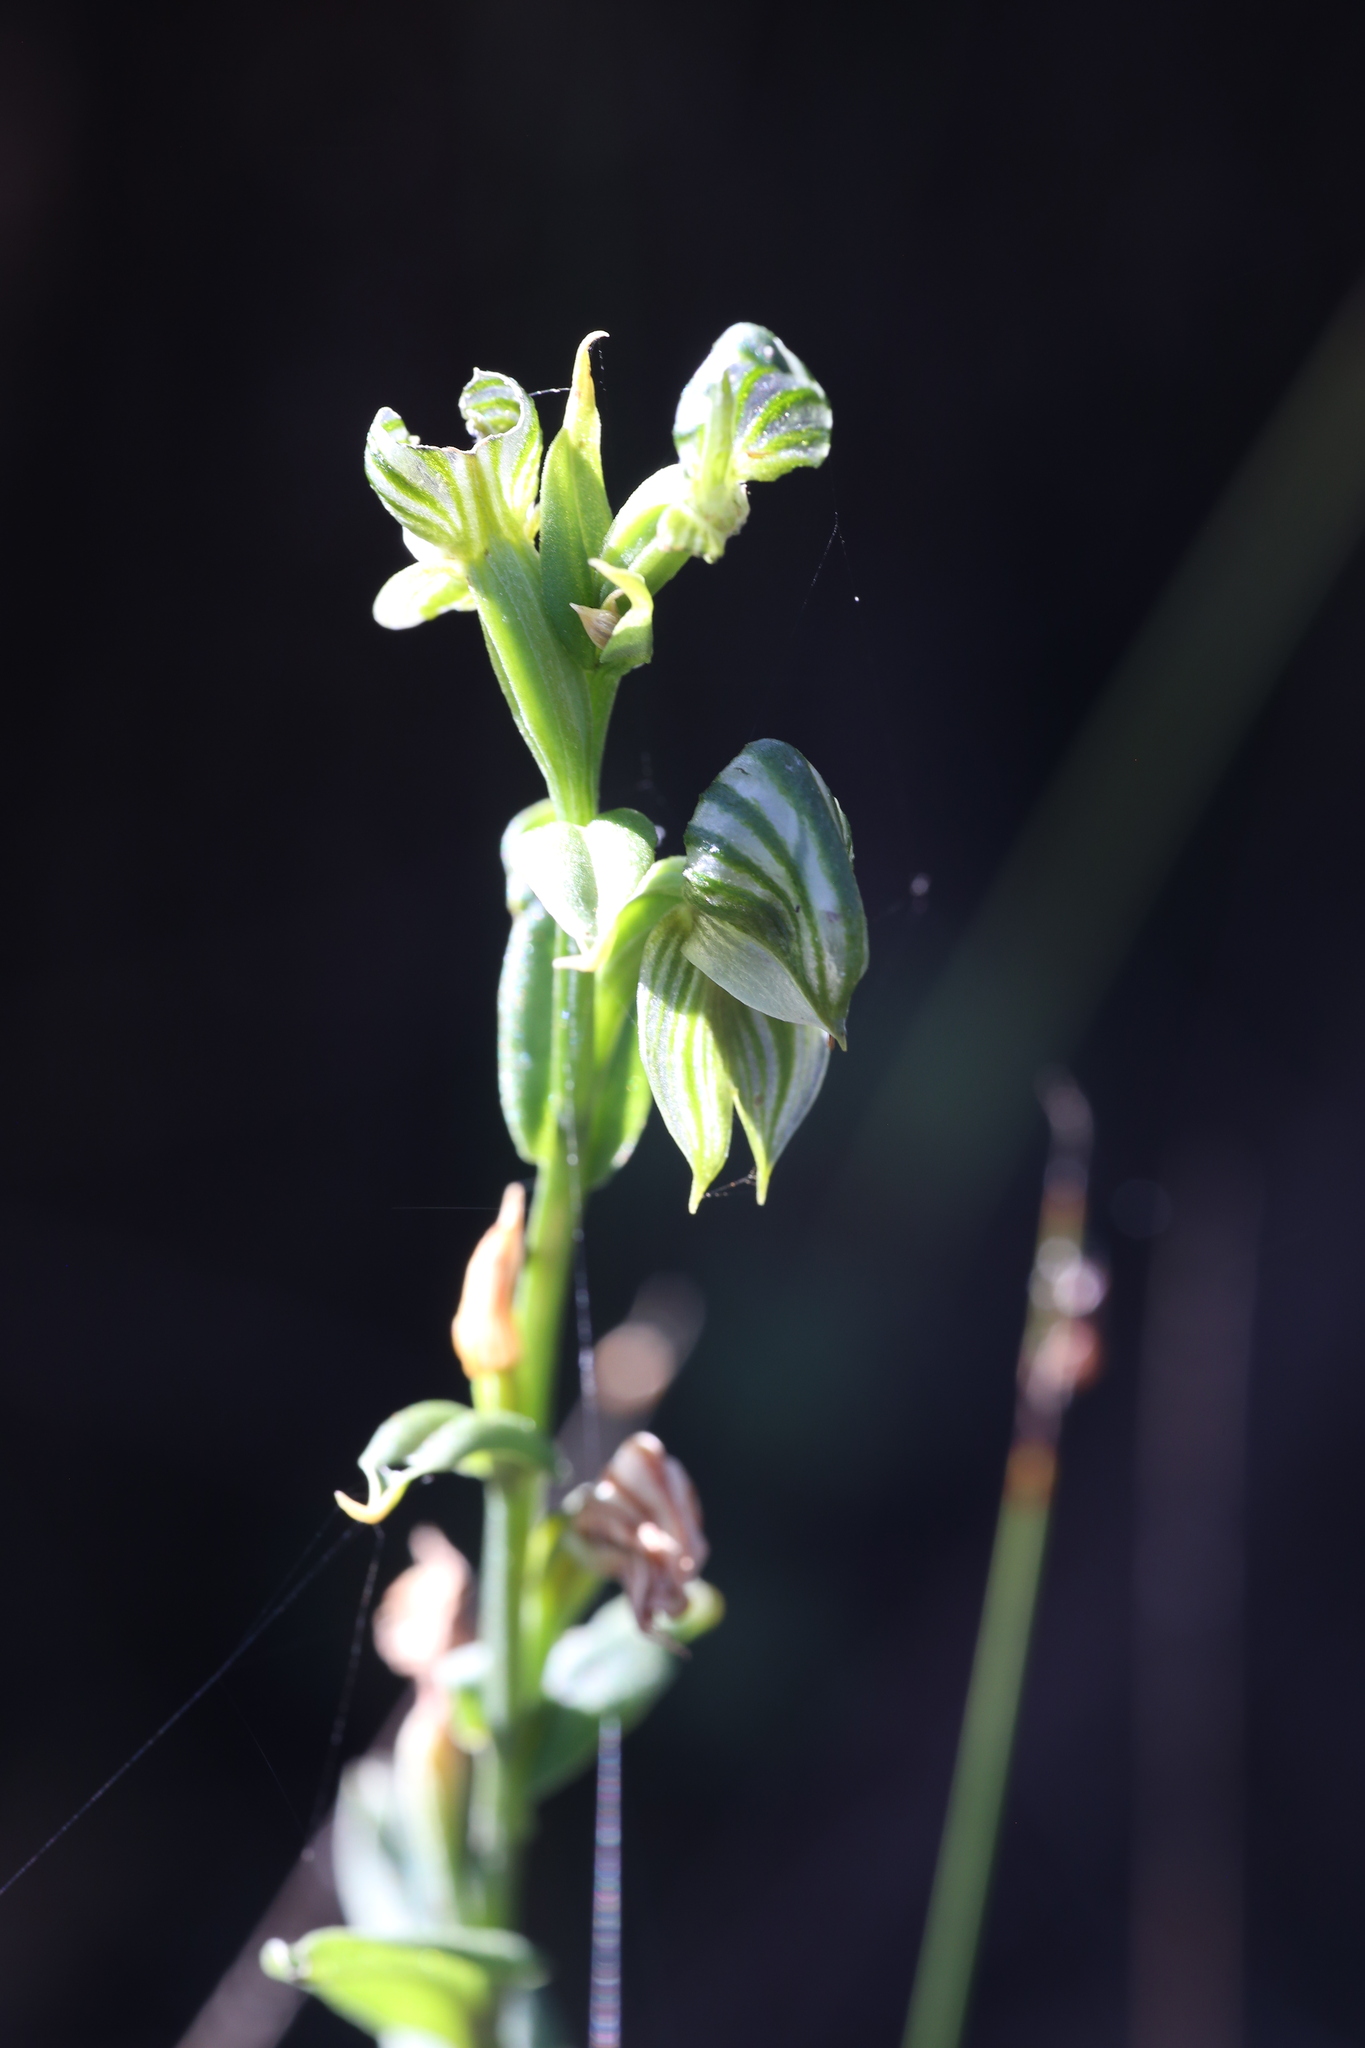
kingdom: Plantae
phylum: Tracheophyta
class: Liliopsida
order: Asparagales
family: Orchidaceae
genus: Pterostylis
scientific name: Pterostylis vittata
